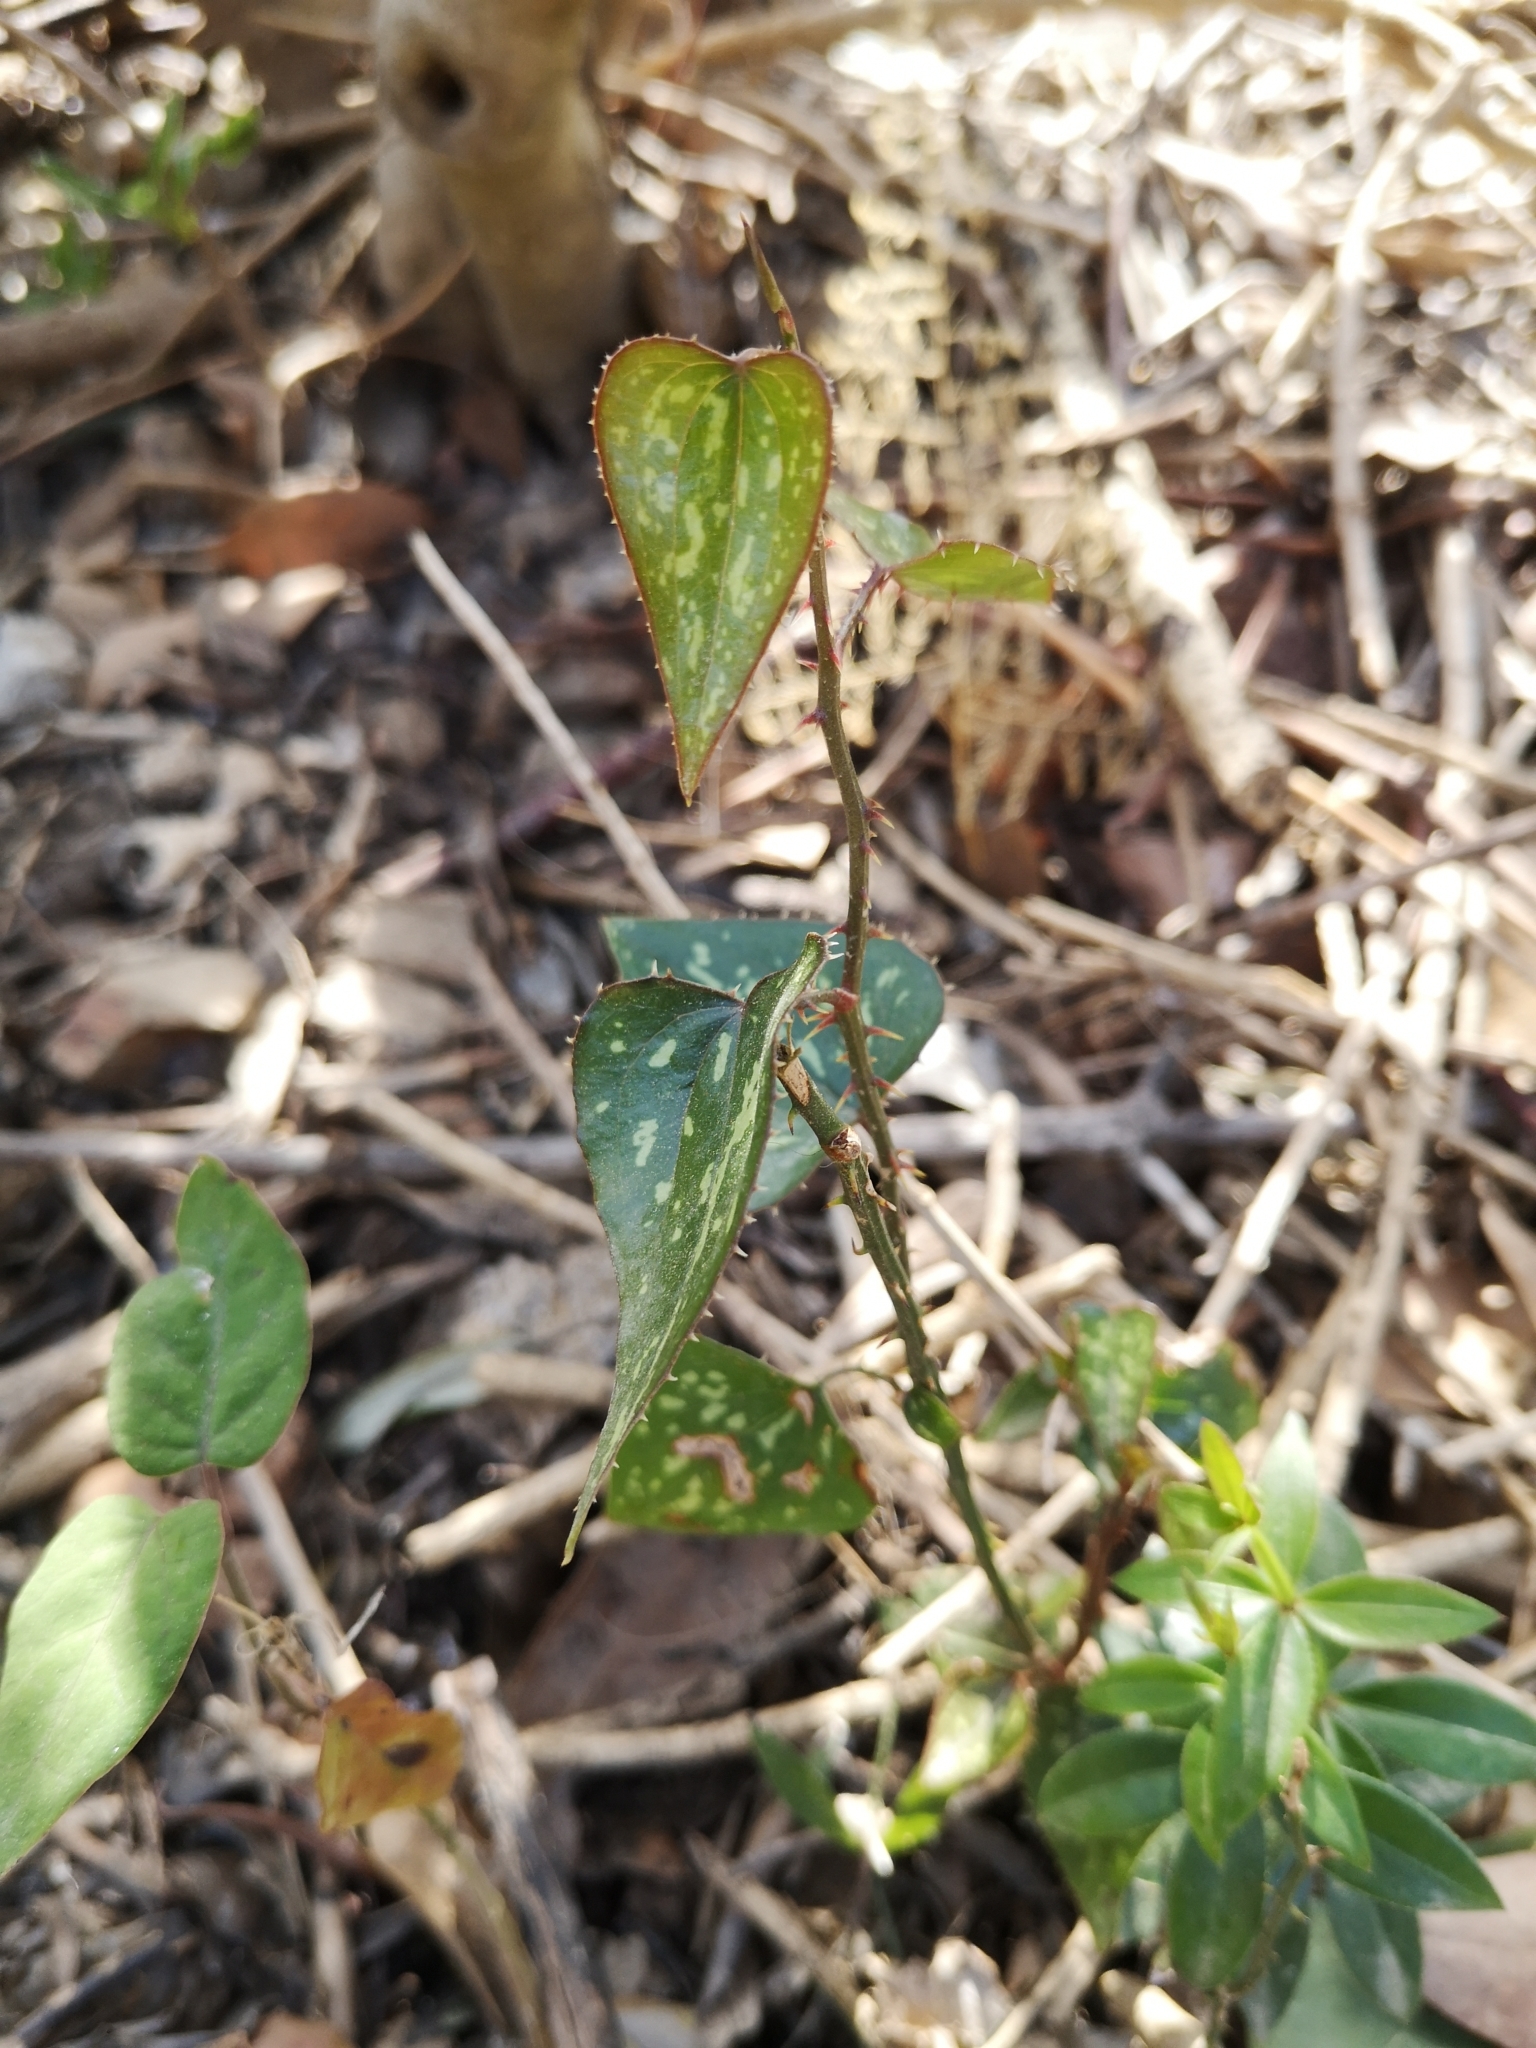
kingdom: Plantae
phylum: Tracheophyta
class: Liliopsida
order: Liliales
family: Smilacaceae
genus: Smilax
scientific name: Smilax aspera
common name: Common smilax
